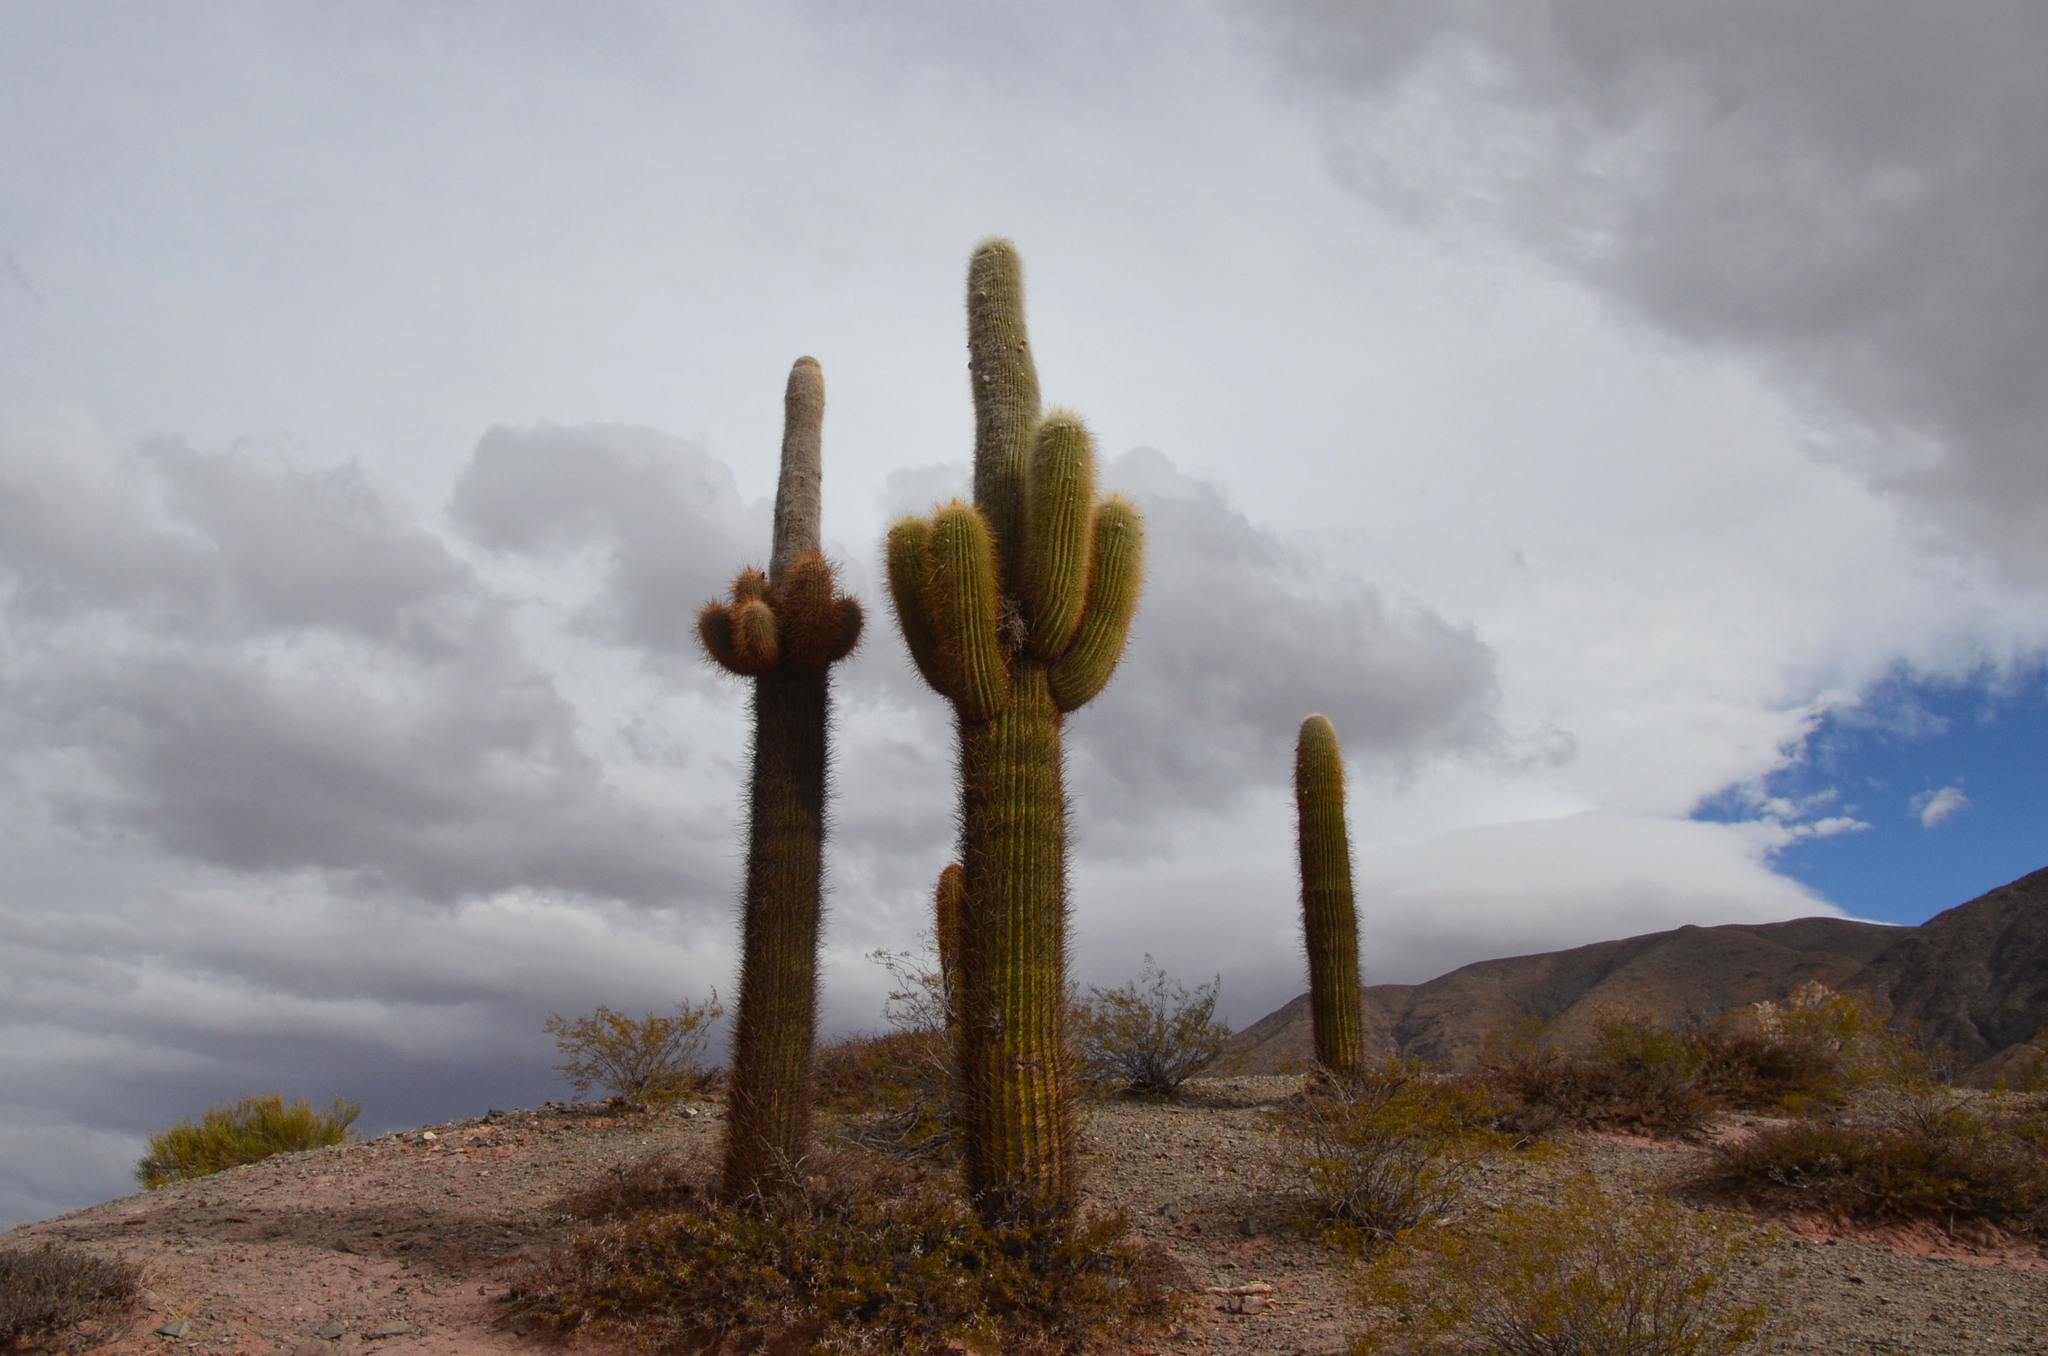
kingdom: Plantae
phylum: Tracheophyta
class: Magnoliopsida
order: Caryophyllales
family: Cactaceae
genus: Leucostele
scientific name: Leucostele atacamensis
